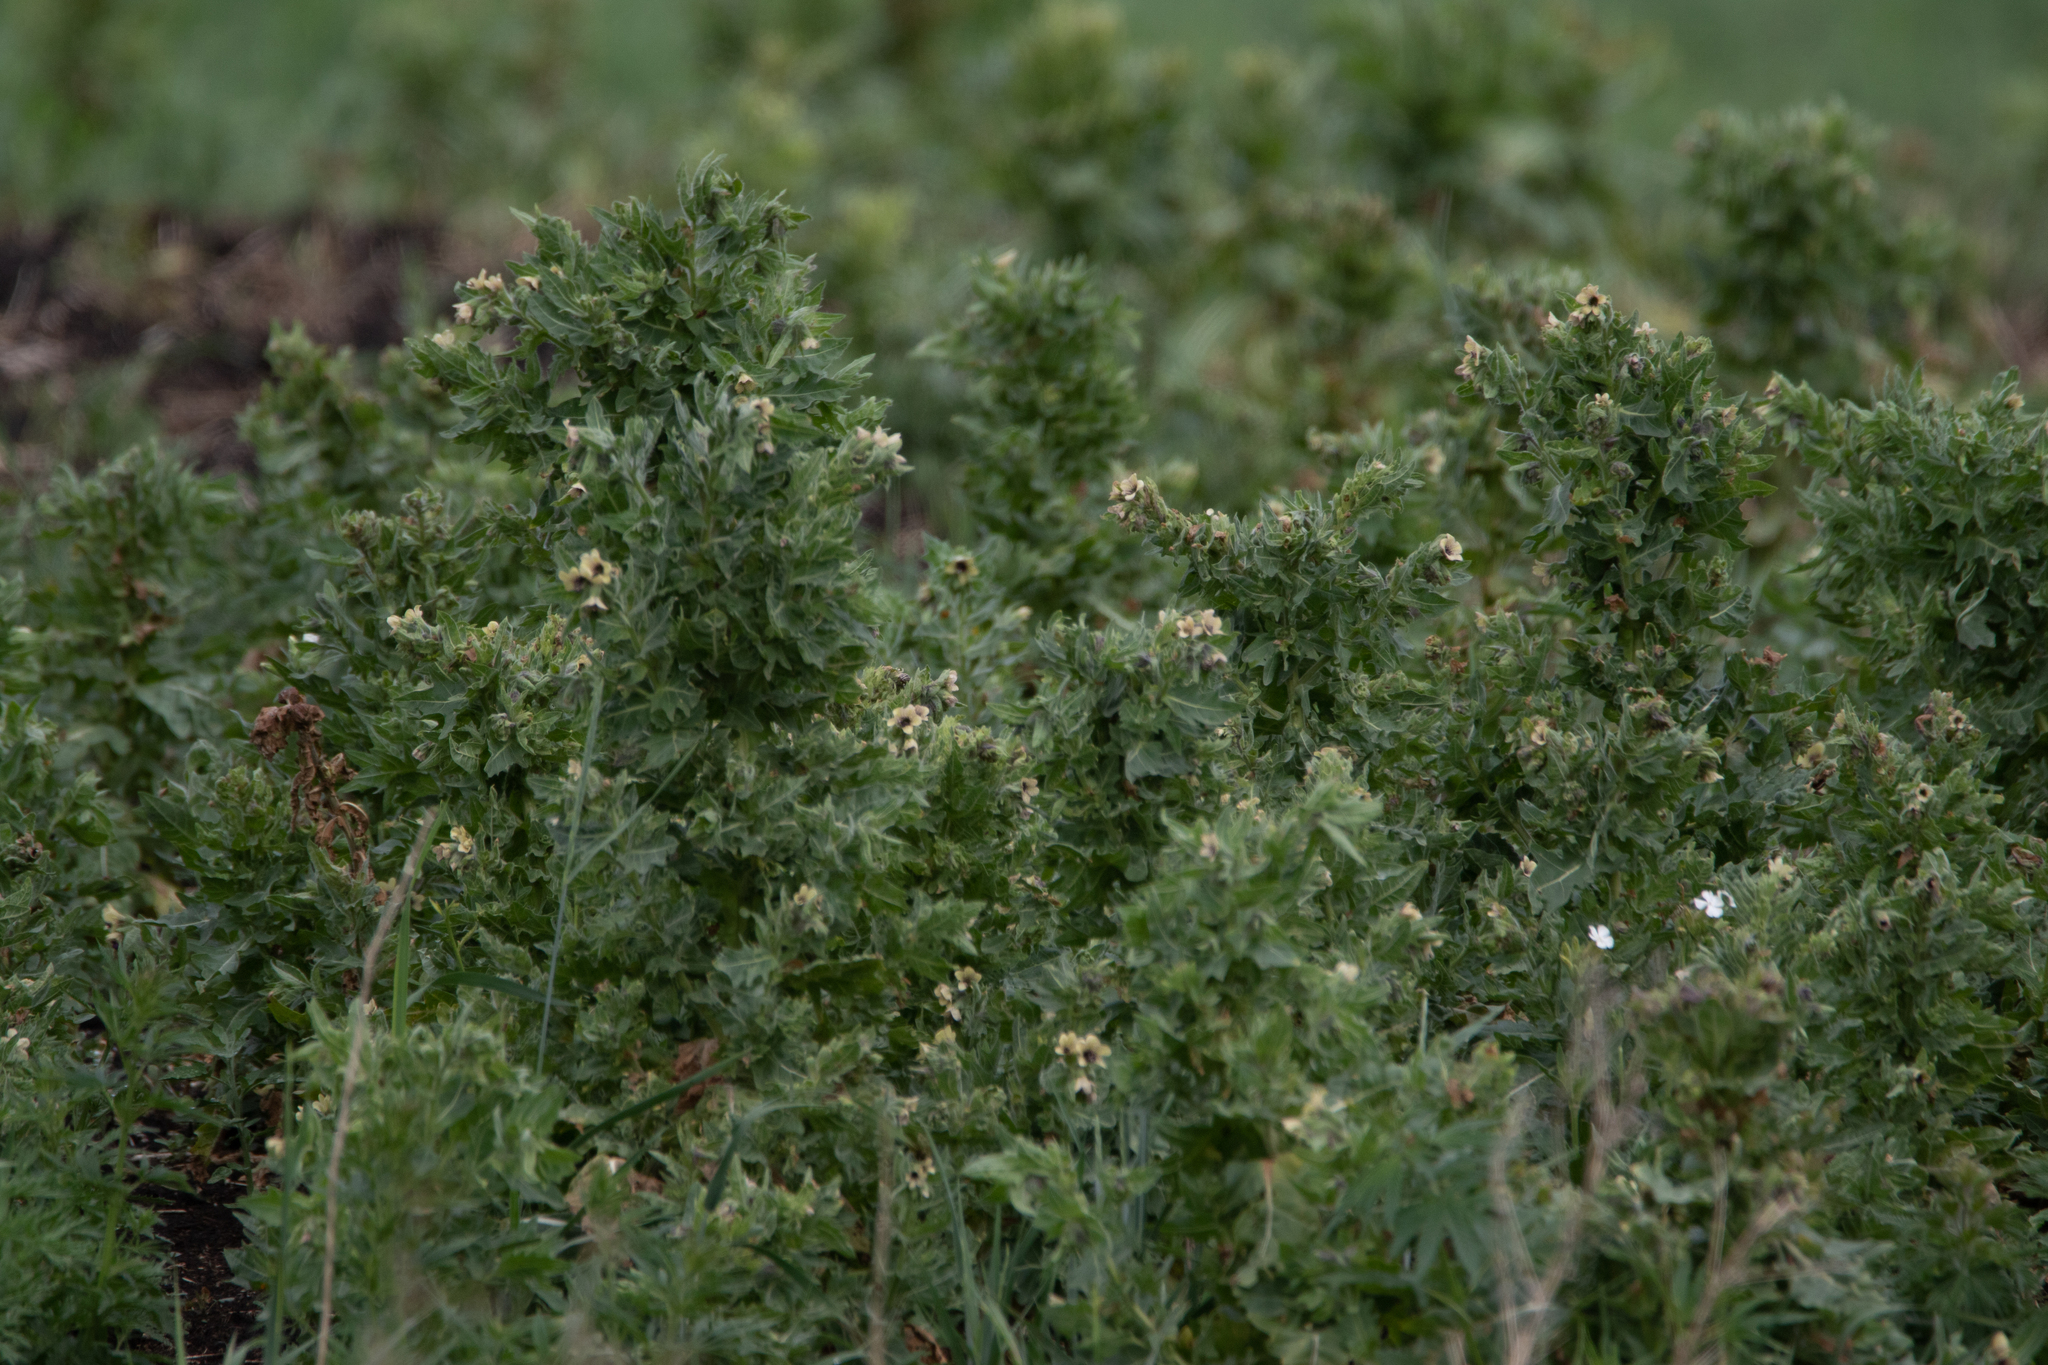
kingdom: Plantae
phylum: Tracheophyta
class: Magnoliopsida
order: Solanales
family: Solanaceae
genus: Hyoscyamus
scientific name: Hyoscyamus niger
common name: Henbane
